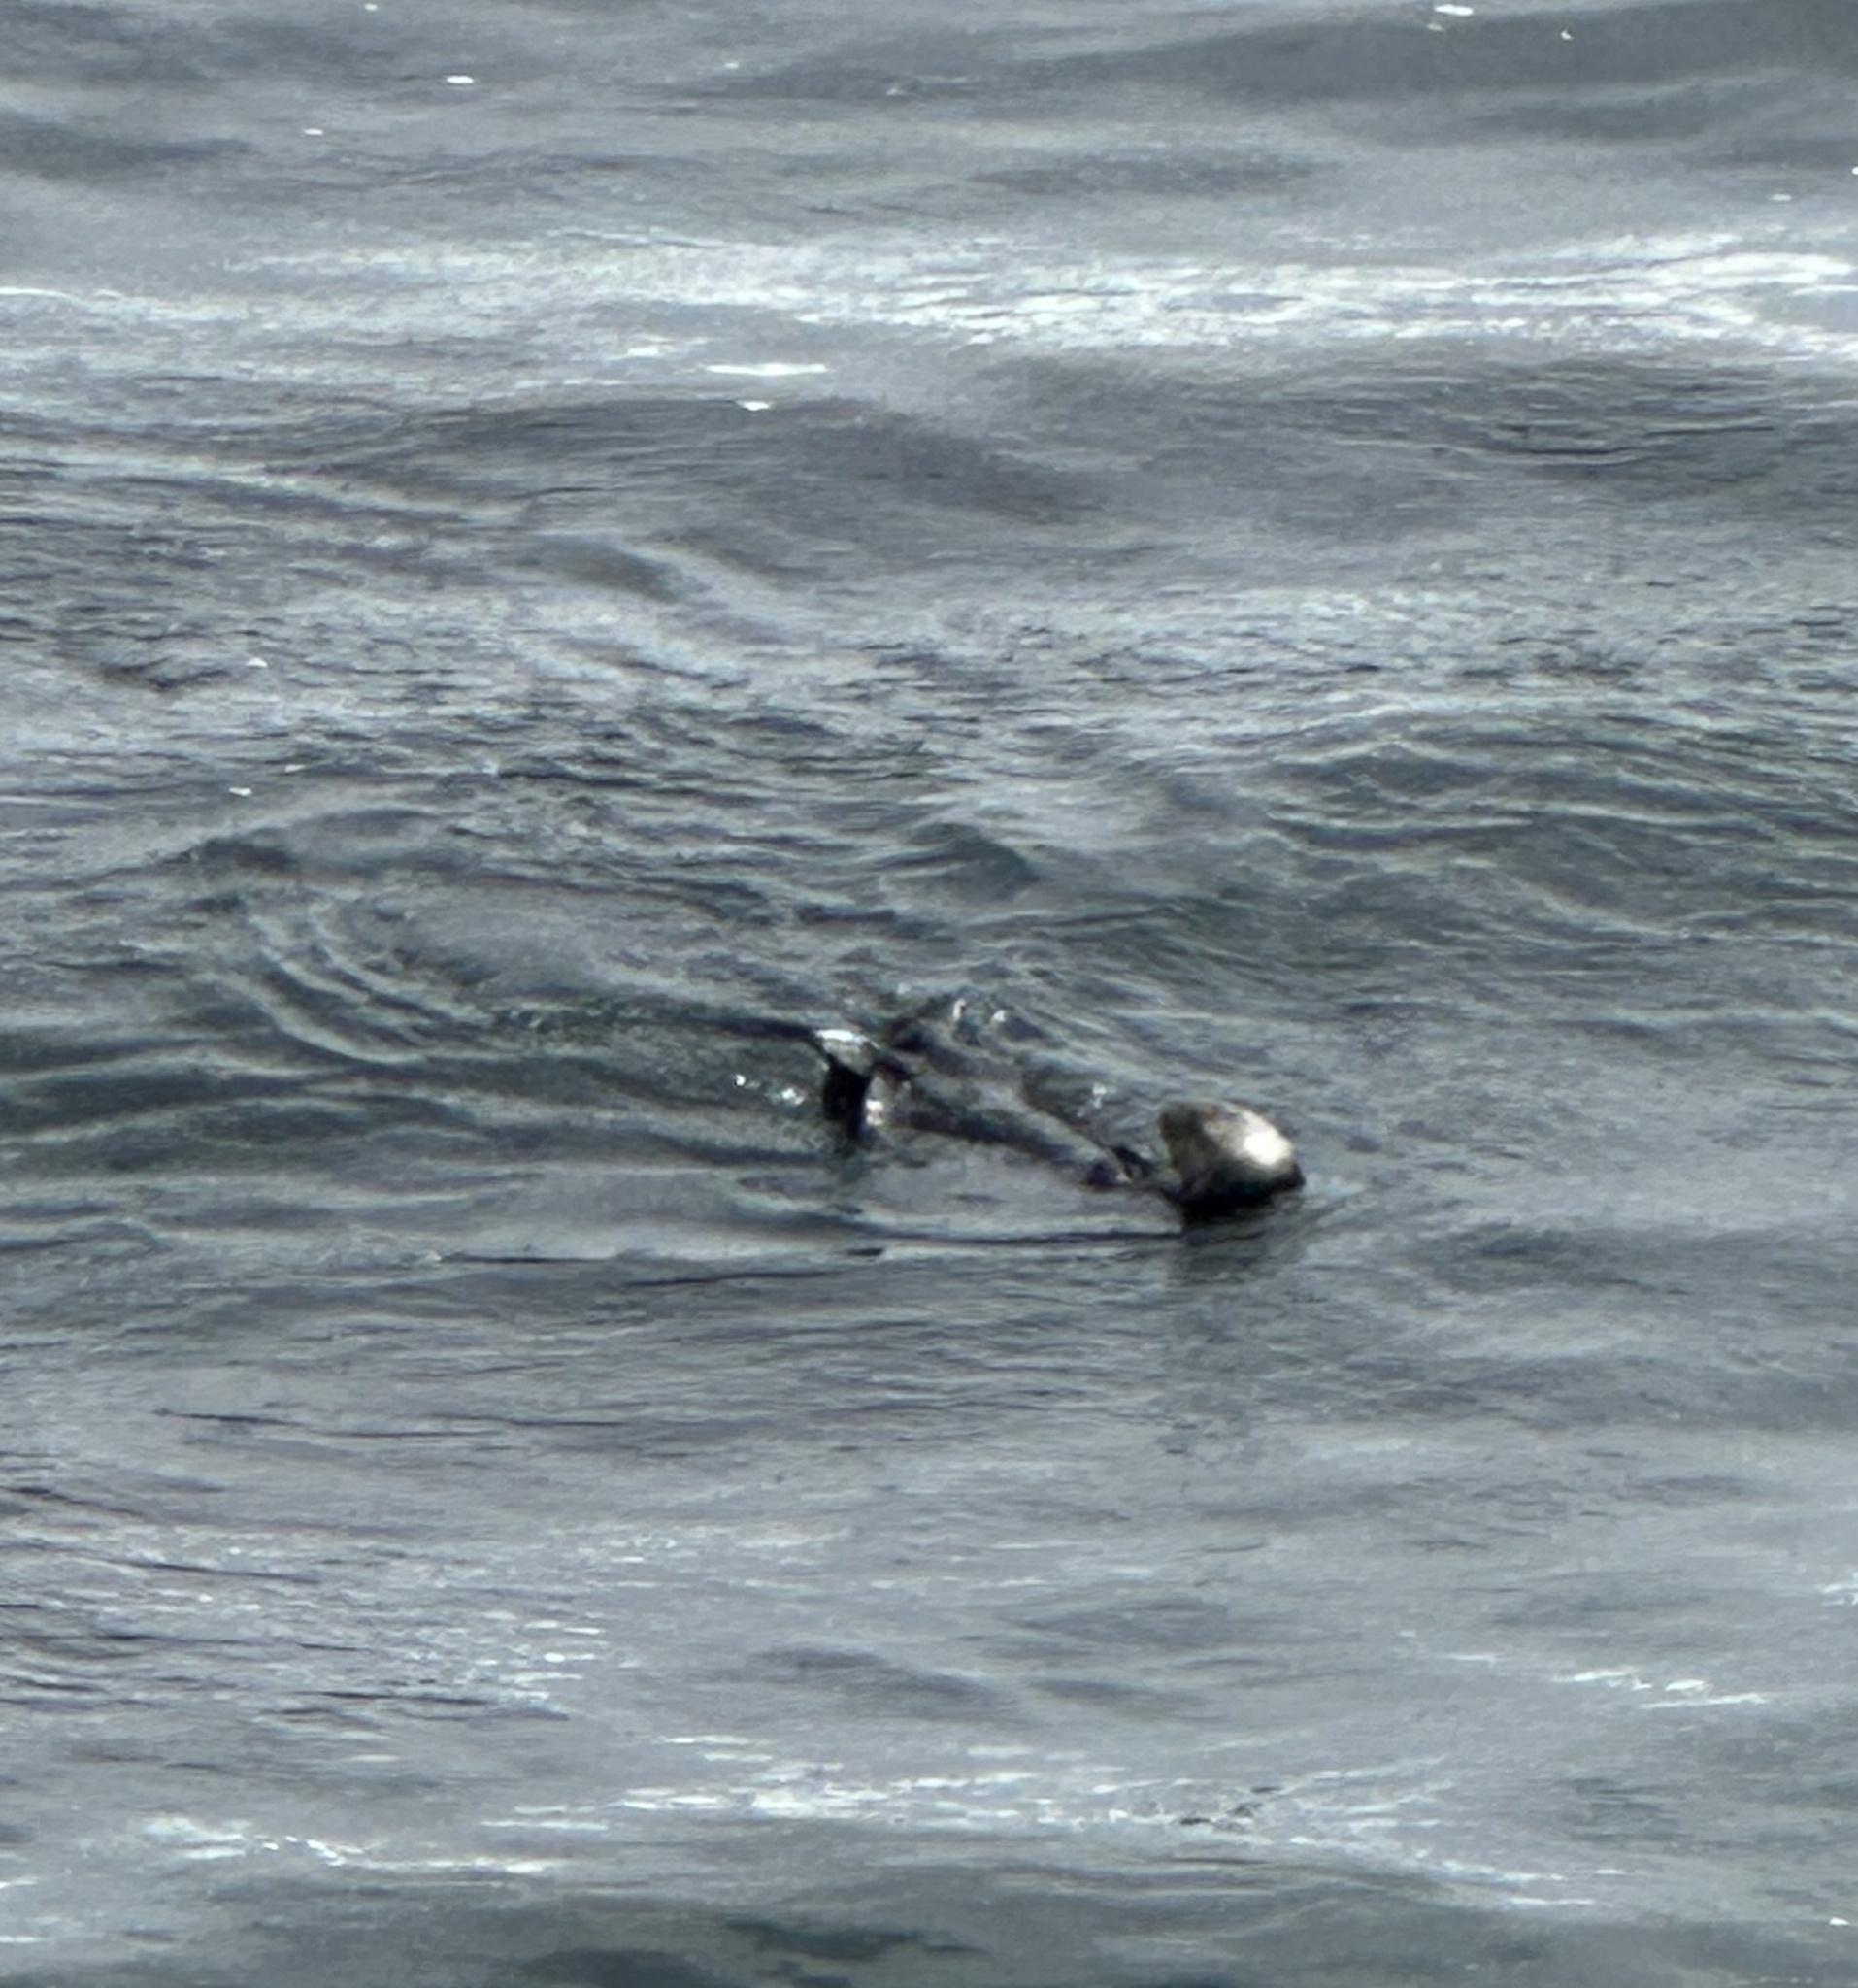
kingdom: Animalia
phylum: Chordata
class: Mammalia
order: Carnivora
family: Mustelidae
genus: Enhydra
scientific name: Enhydra lutris
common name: Sea otter
